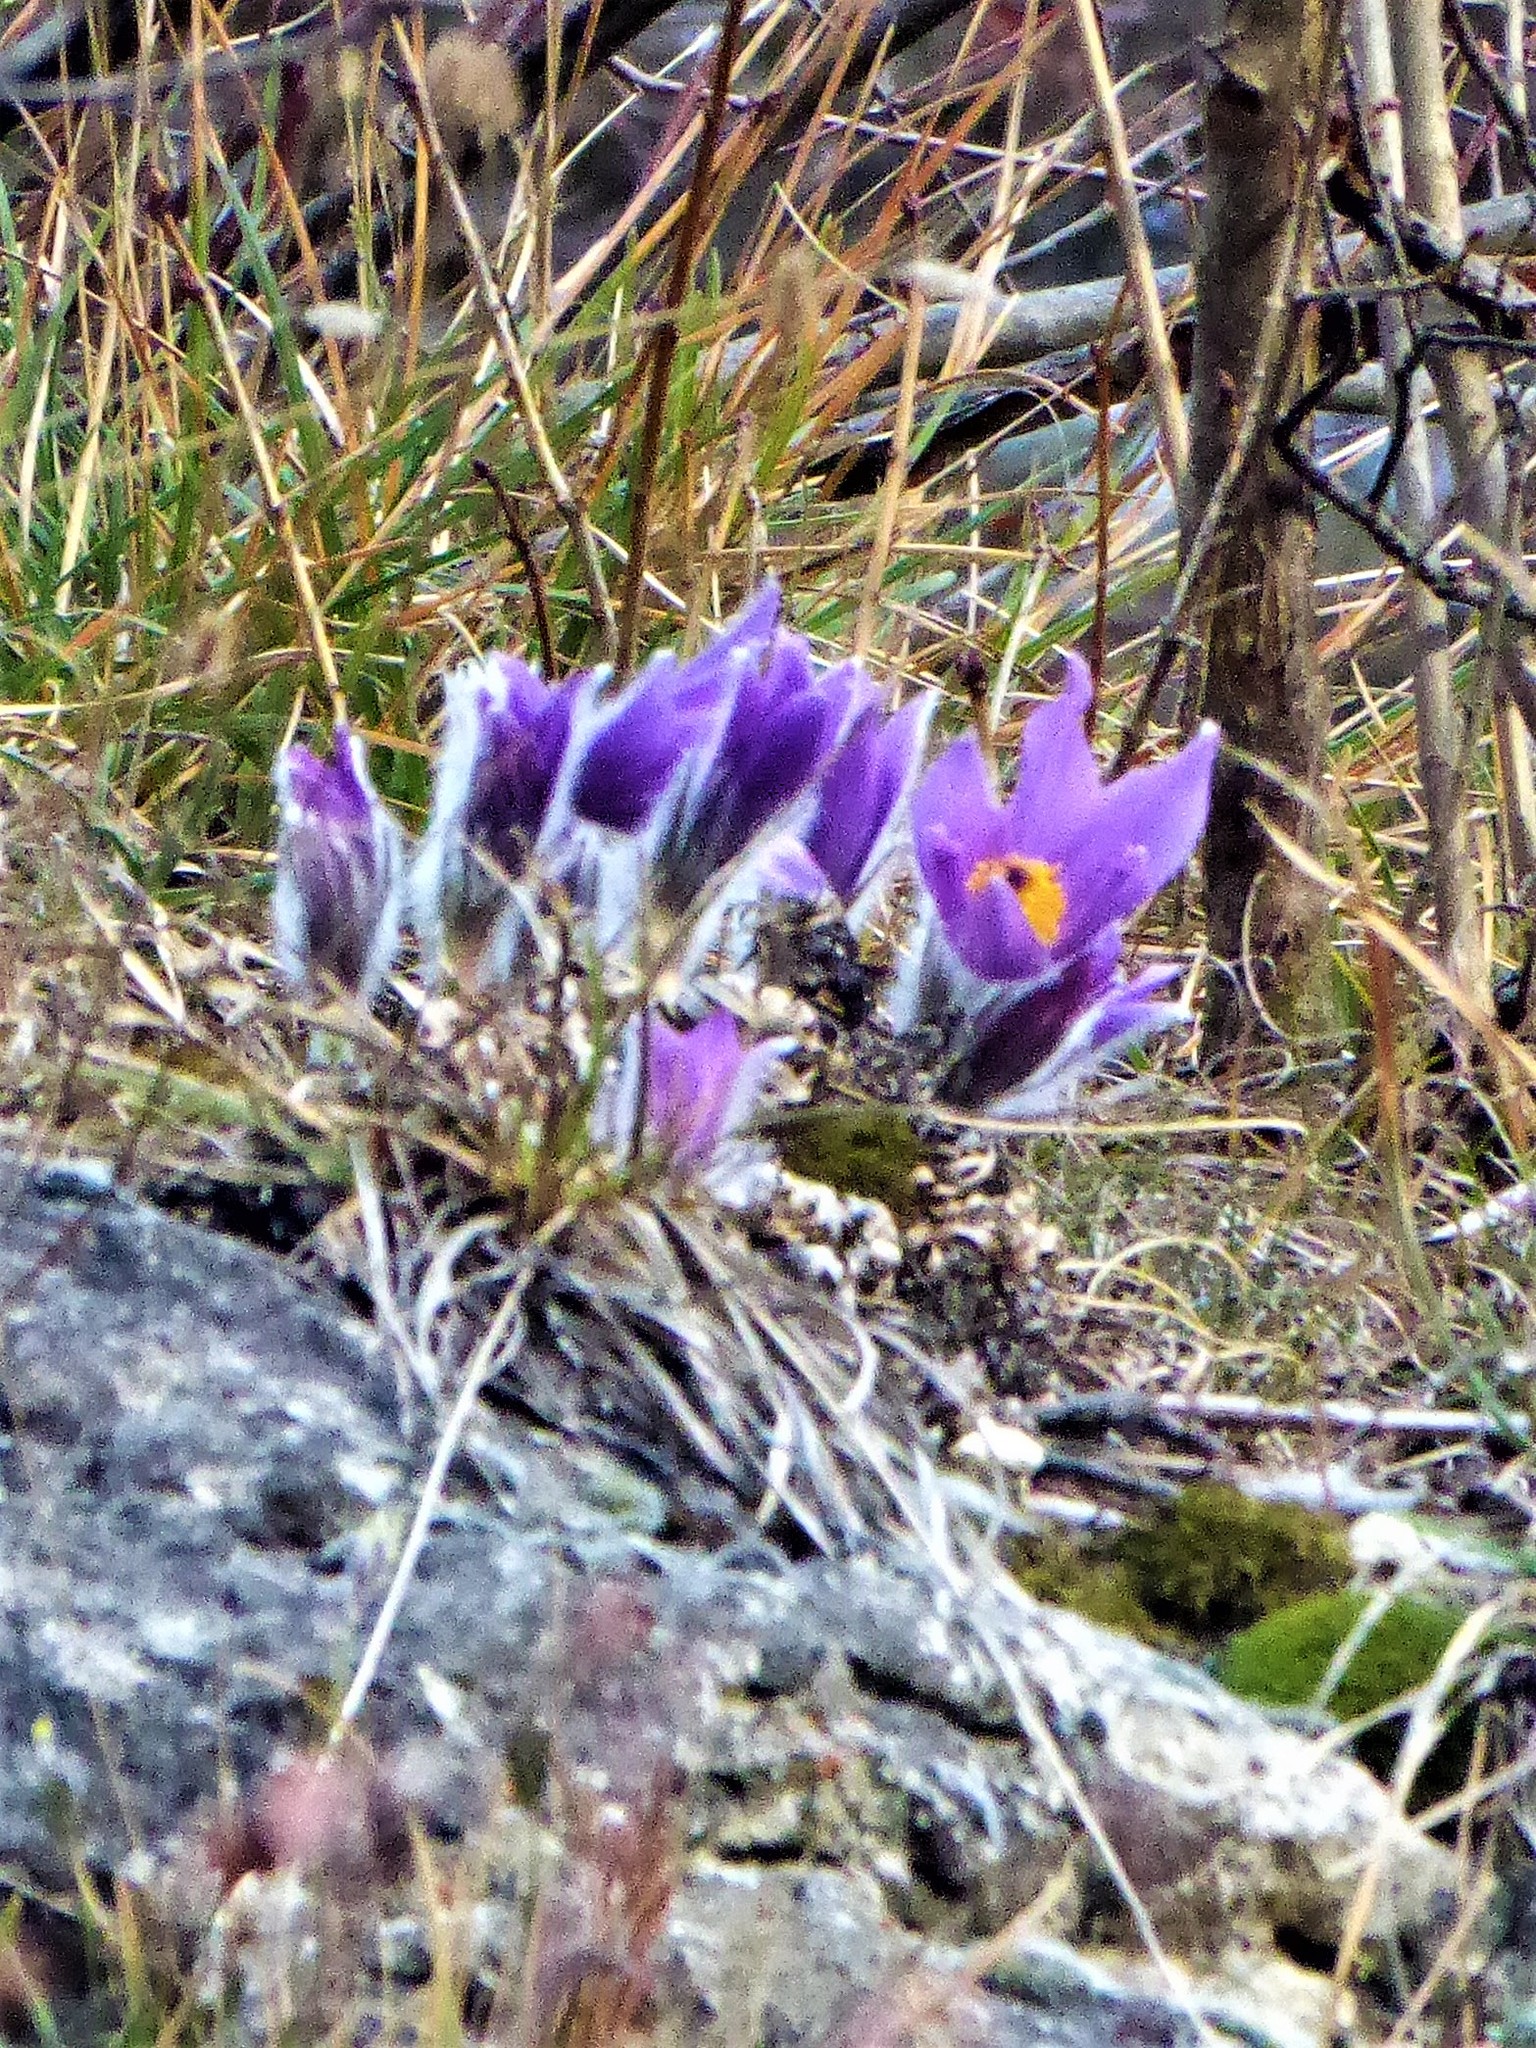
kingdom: Plantae
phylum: Tracheophyta
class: Magnoliopsida
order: Ranunculales
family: Ranunculaceae
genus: Pulsatilla
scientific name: Pulsatilla grandis
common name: Greater pasque flower
